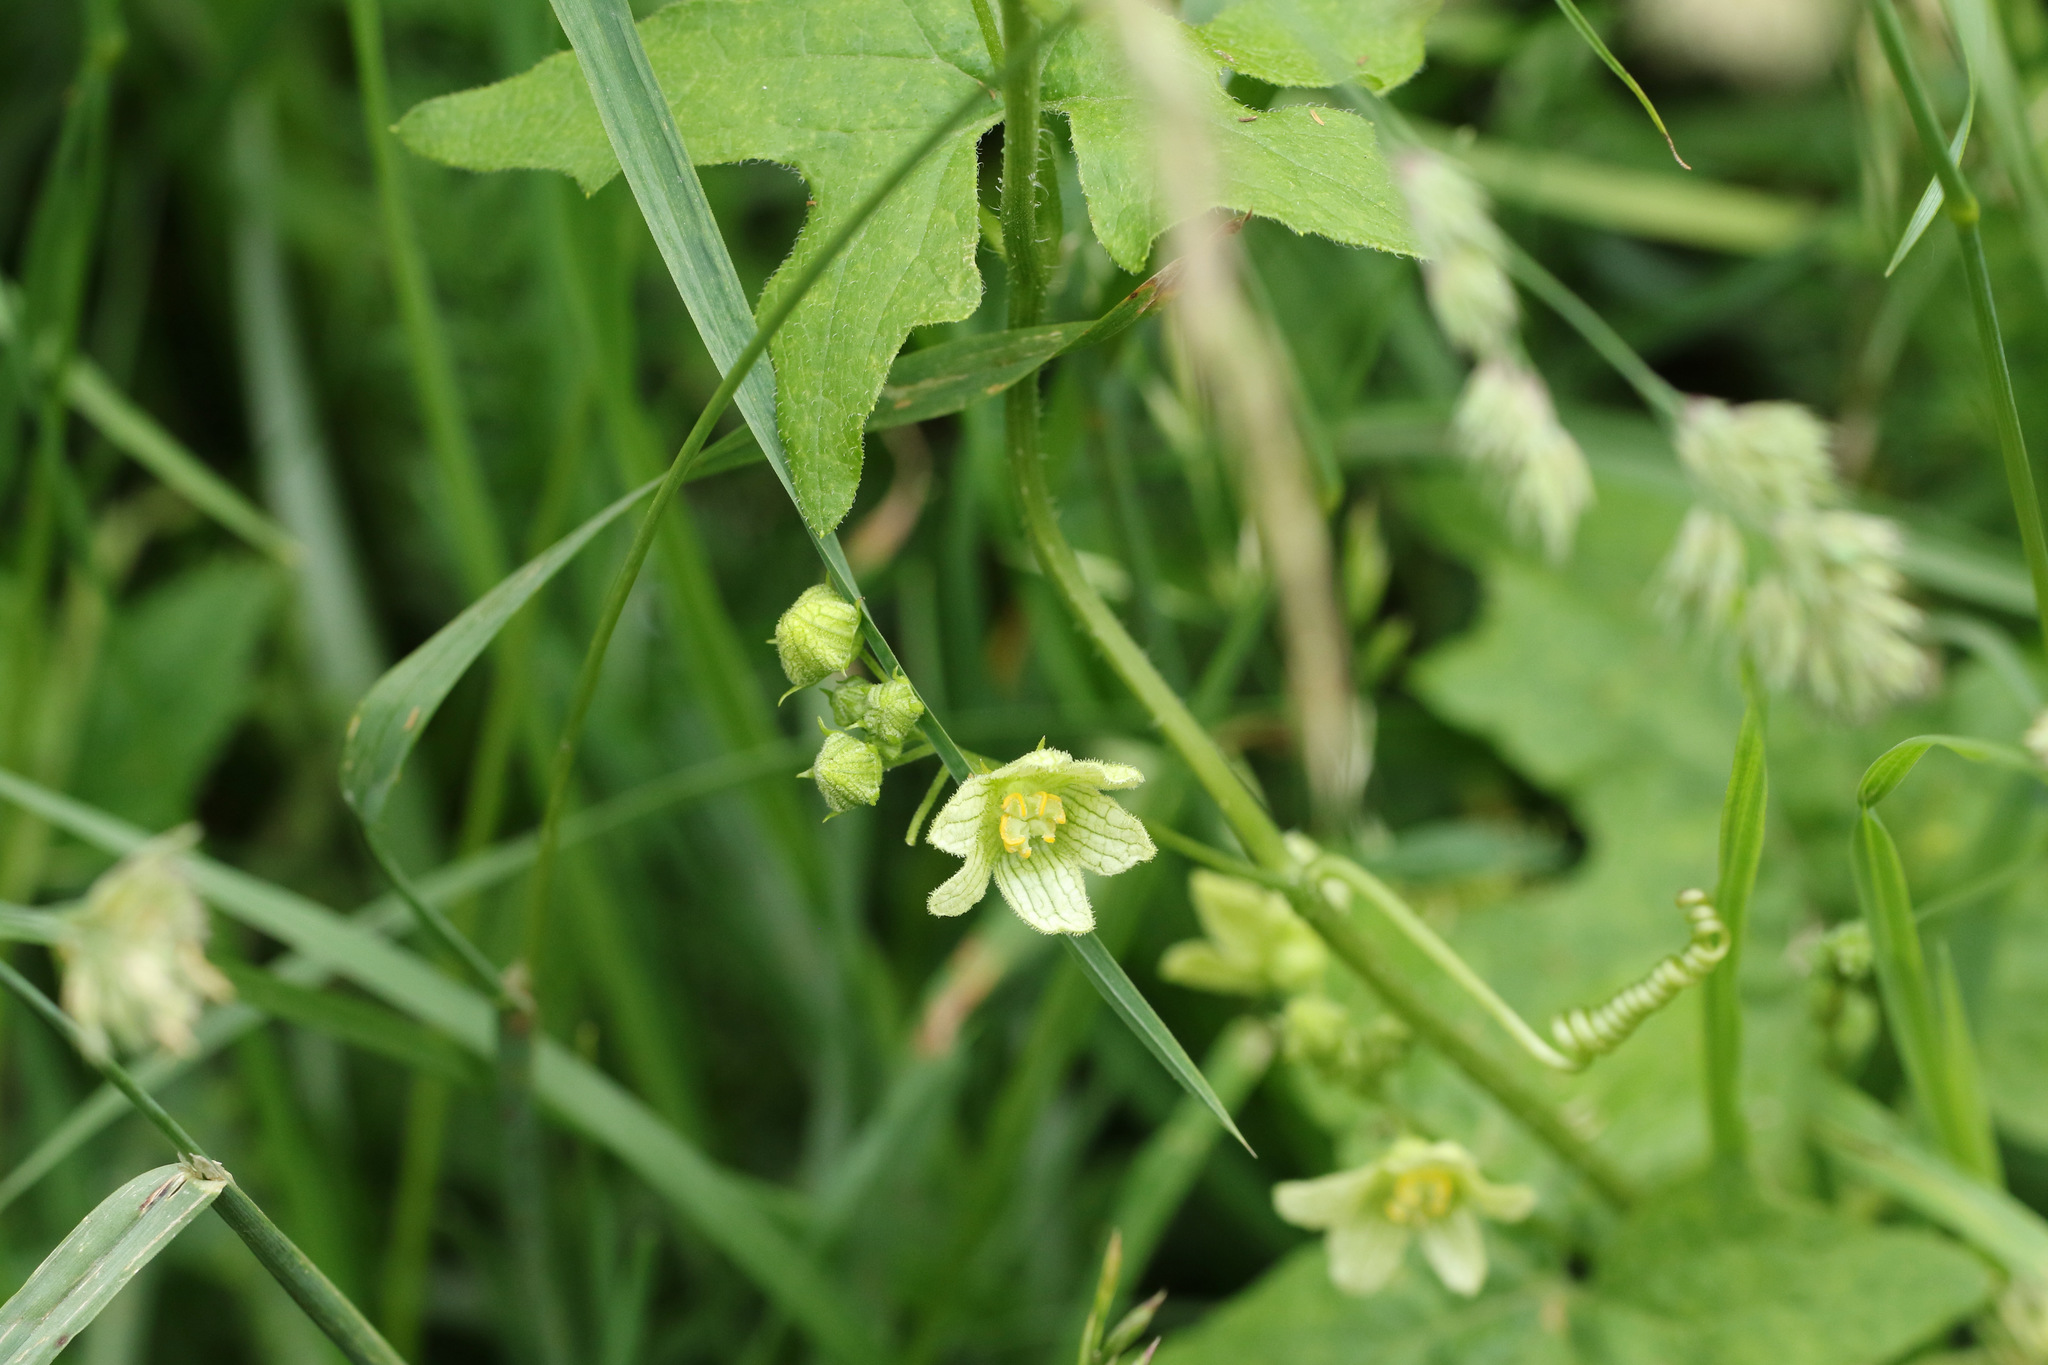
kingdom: Plantae
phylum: Tracheophyta
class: Magnoliopsida
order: Cucurbitales
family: Cucurbitaceae
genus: Bryonia
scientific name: Bryonia cretica
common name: Cretan bryony
